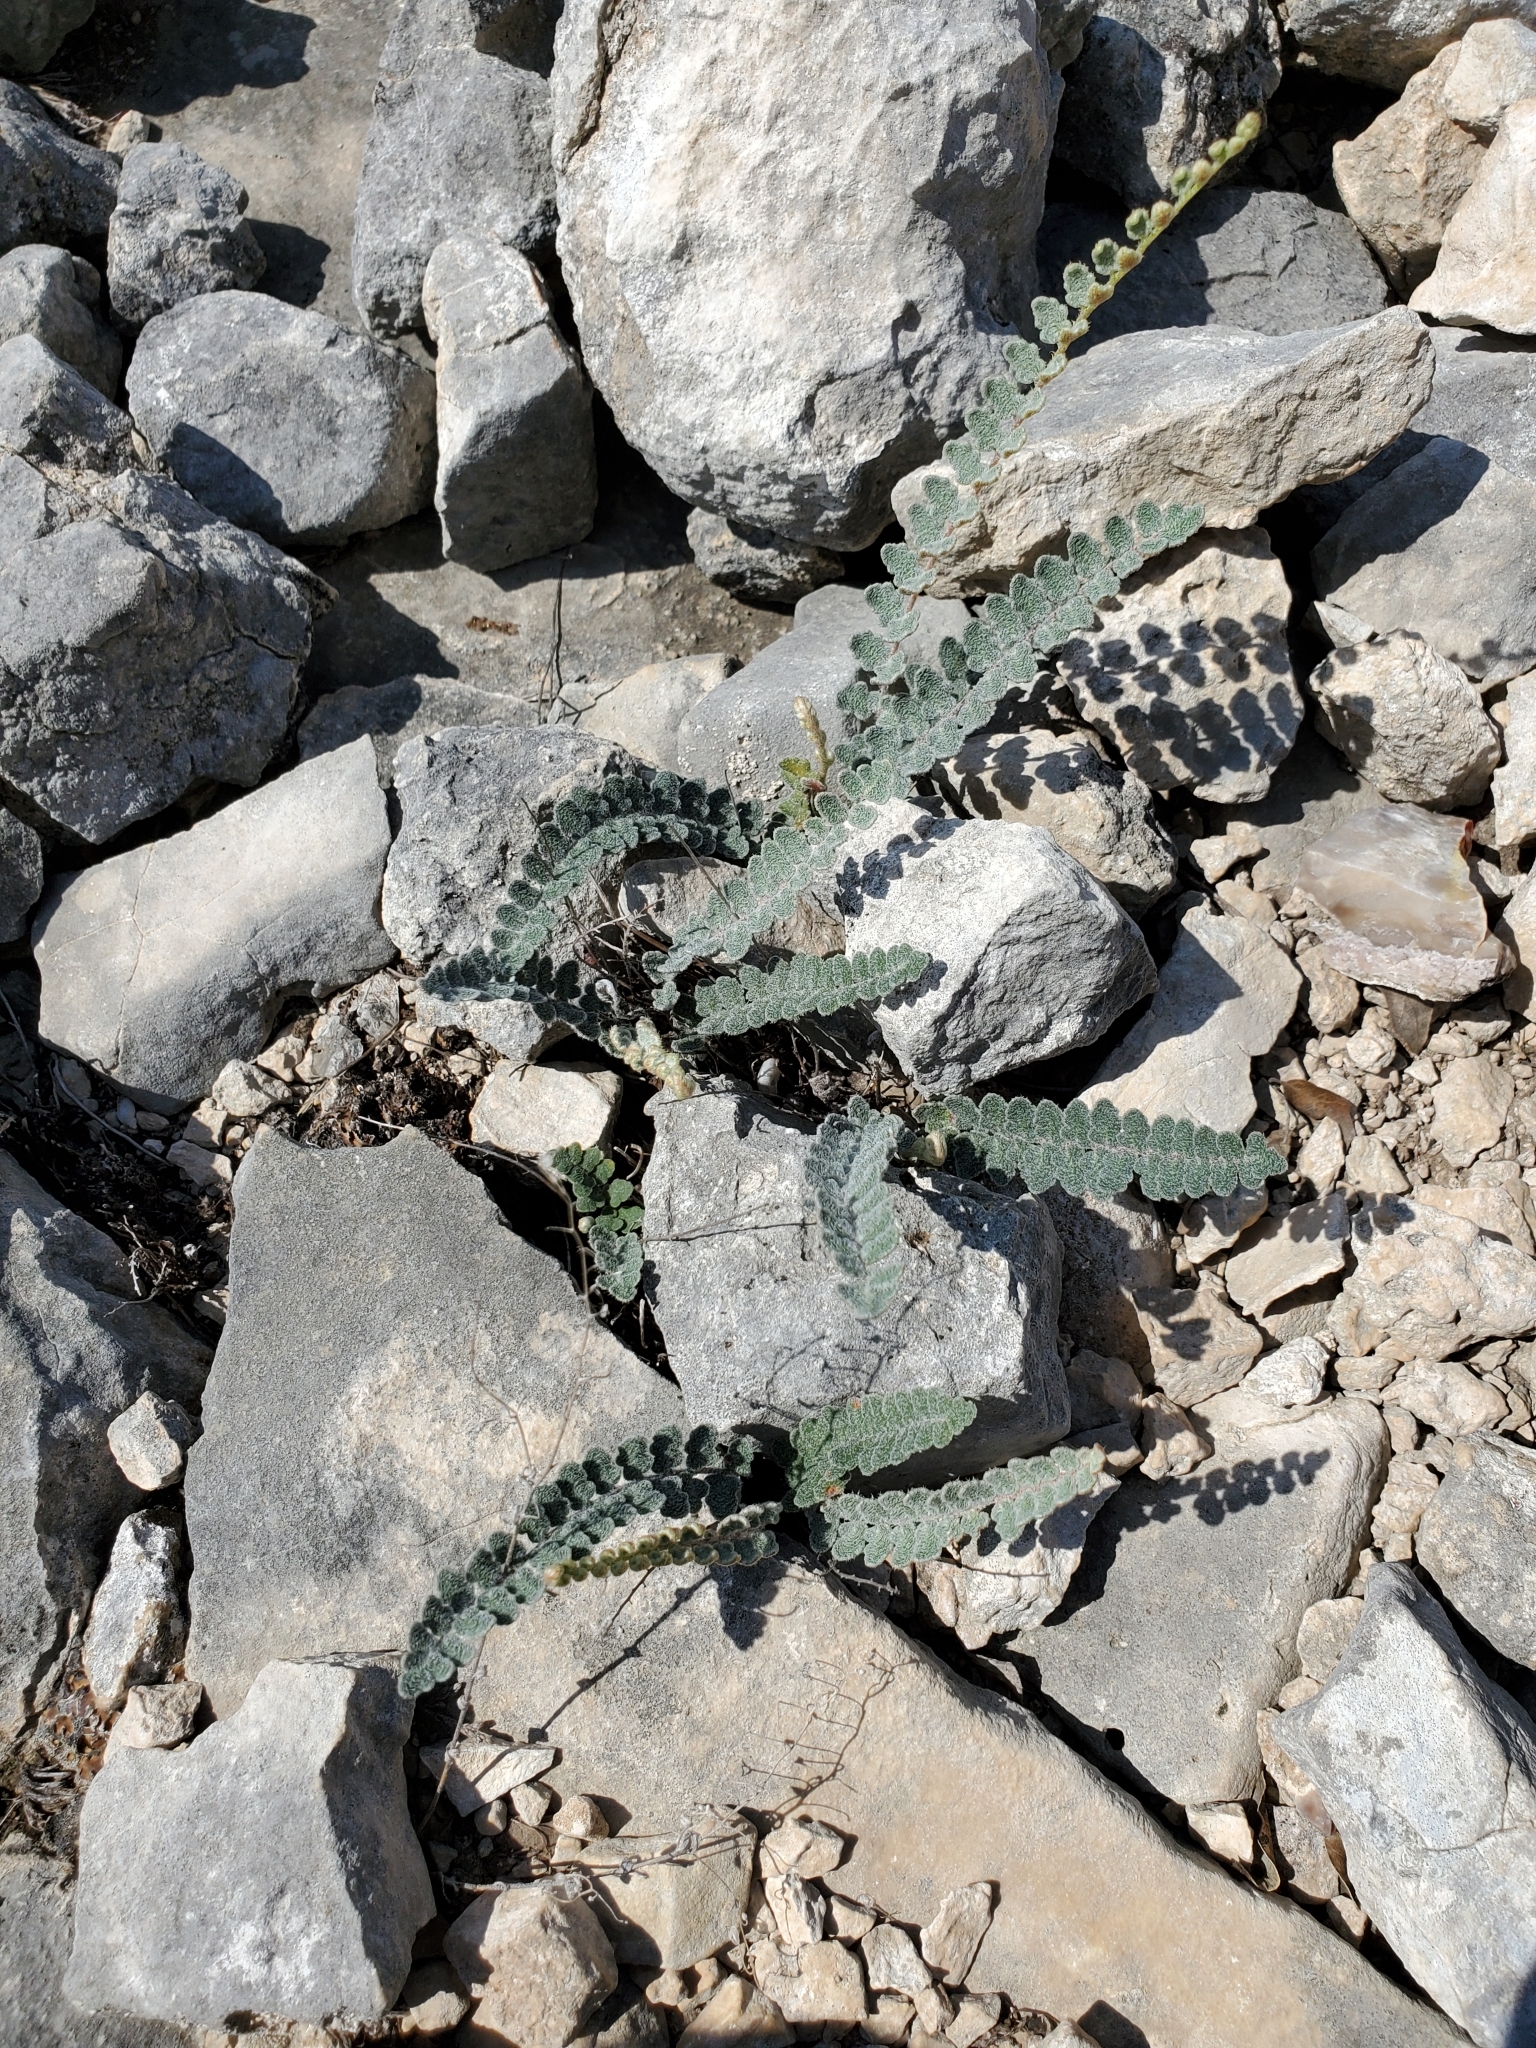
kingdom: Plantae
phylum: Tracheophyta
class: Polypodiopsida
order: Polypodiales
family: Pteridaceae
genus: Astrolepis
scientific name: Astrolepis integerrima
